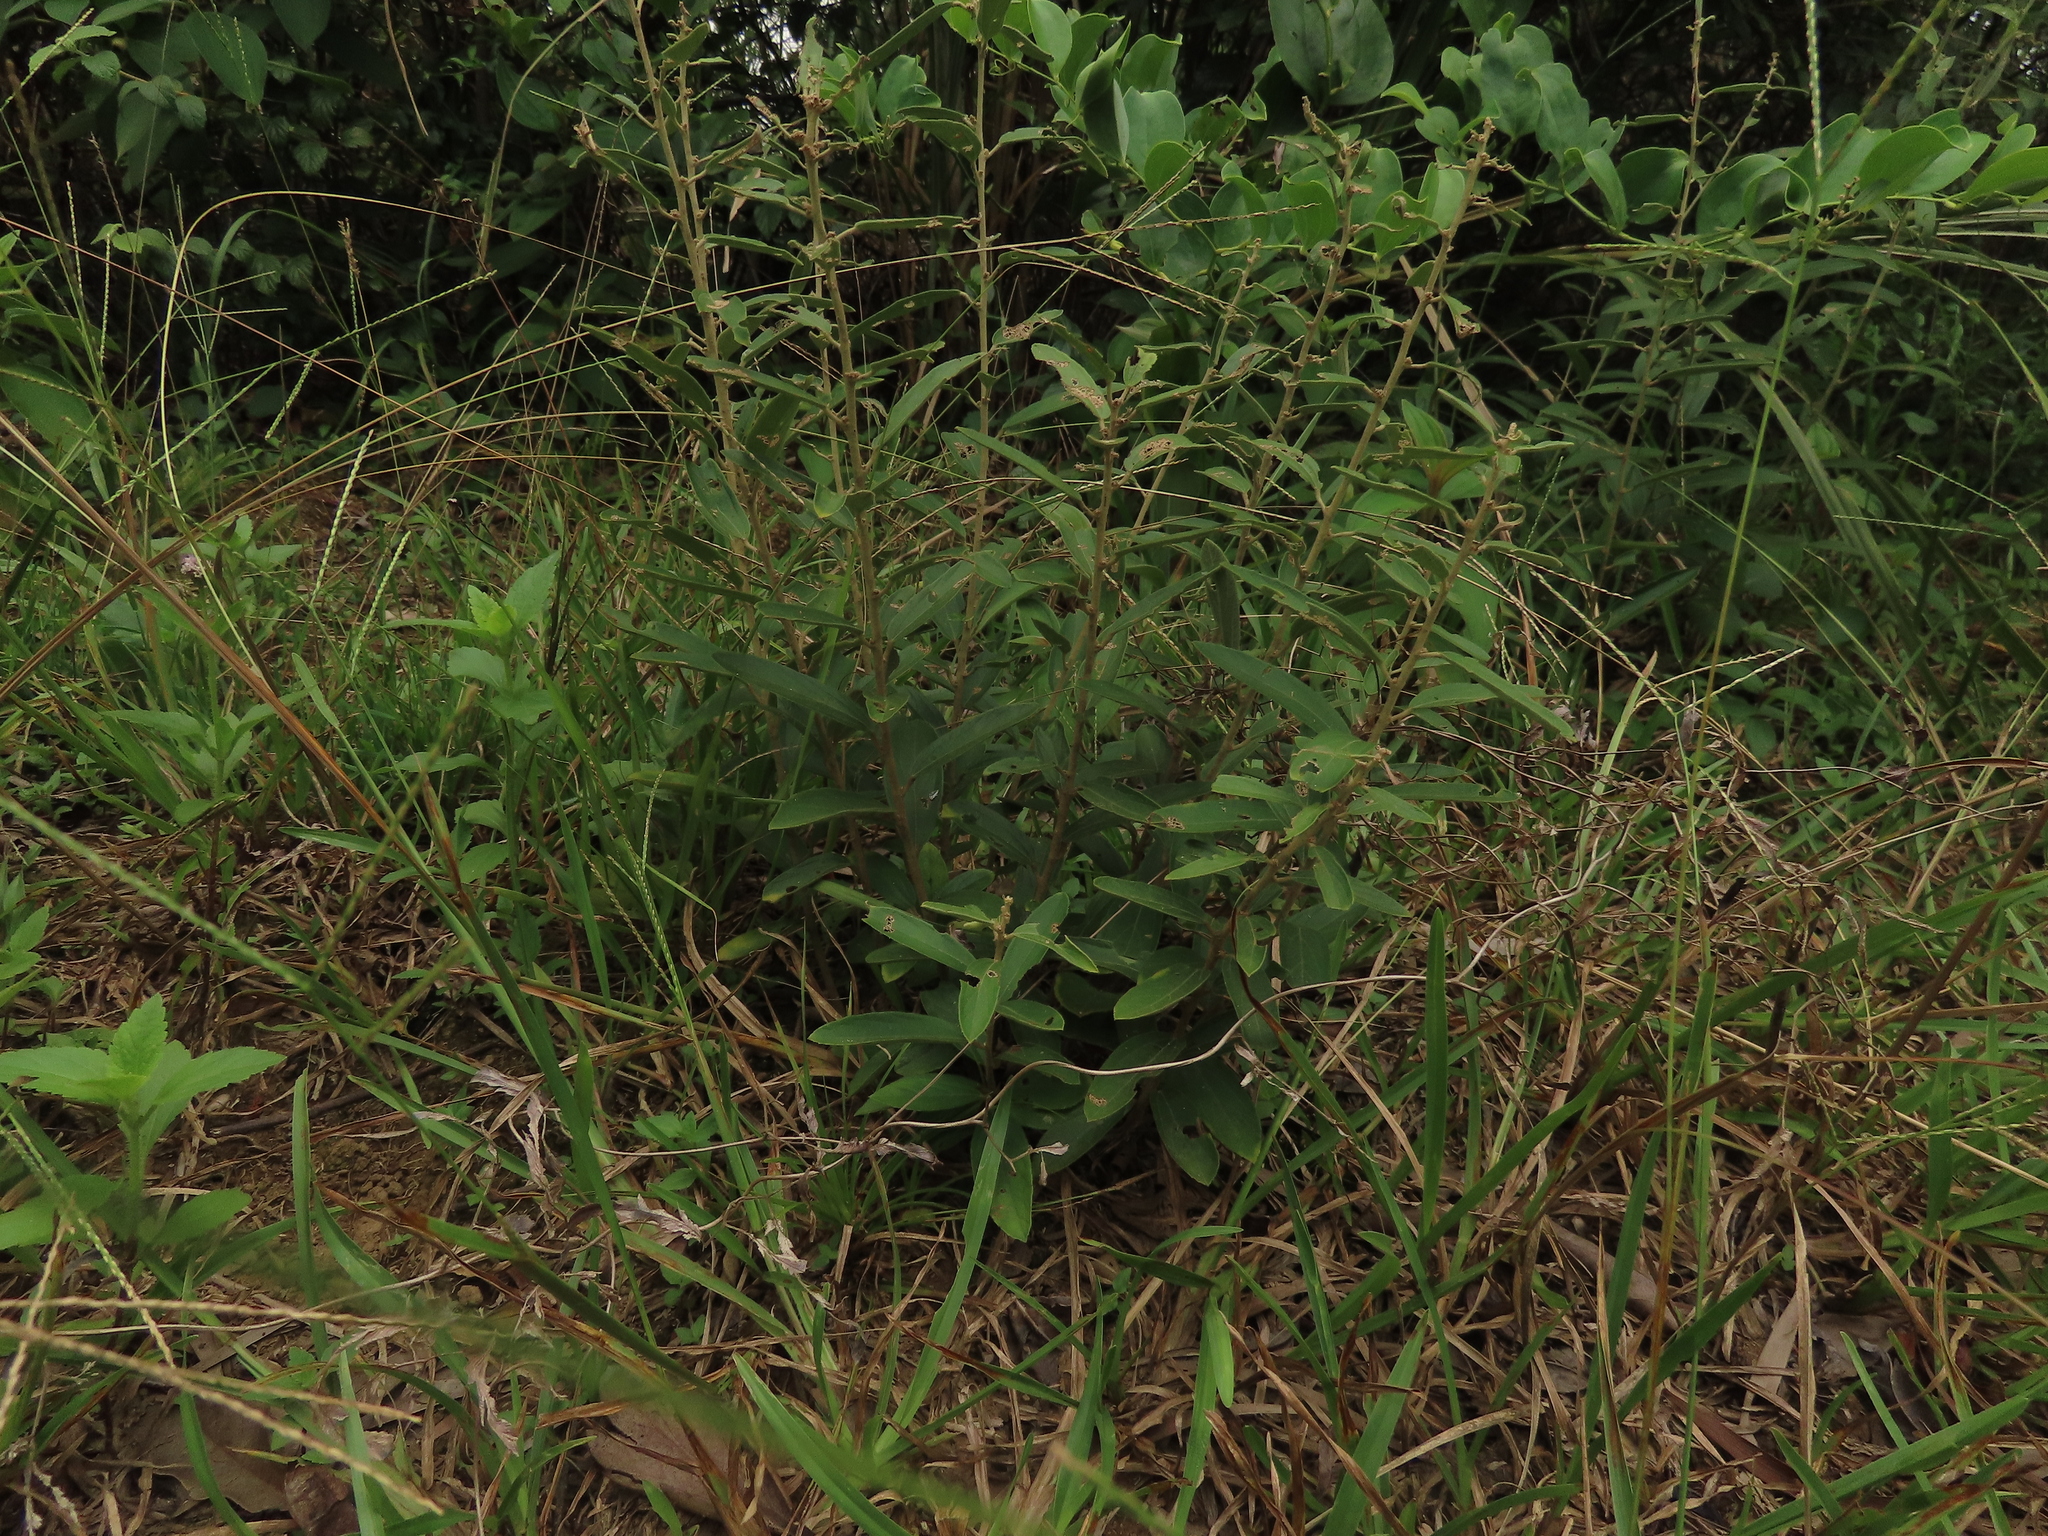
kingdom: Plantae
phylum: Tracheophyta
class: Magnoliopsida
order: Malvales
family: Malvaceae
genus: Helicteres
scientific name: Helicteres angustifolia
